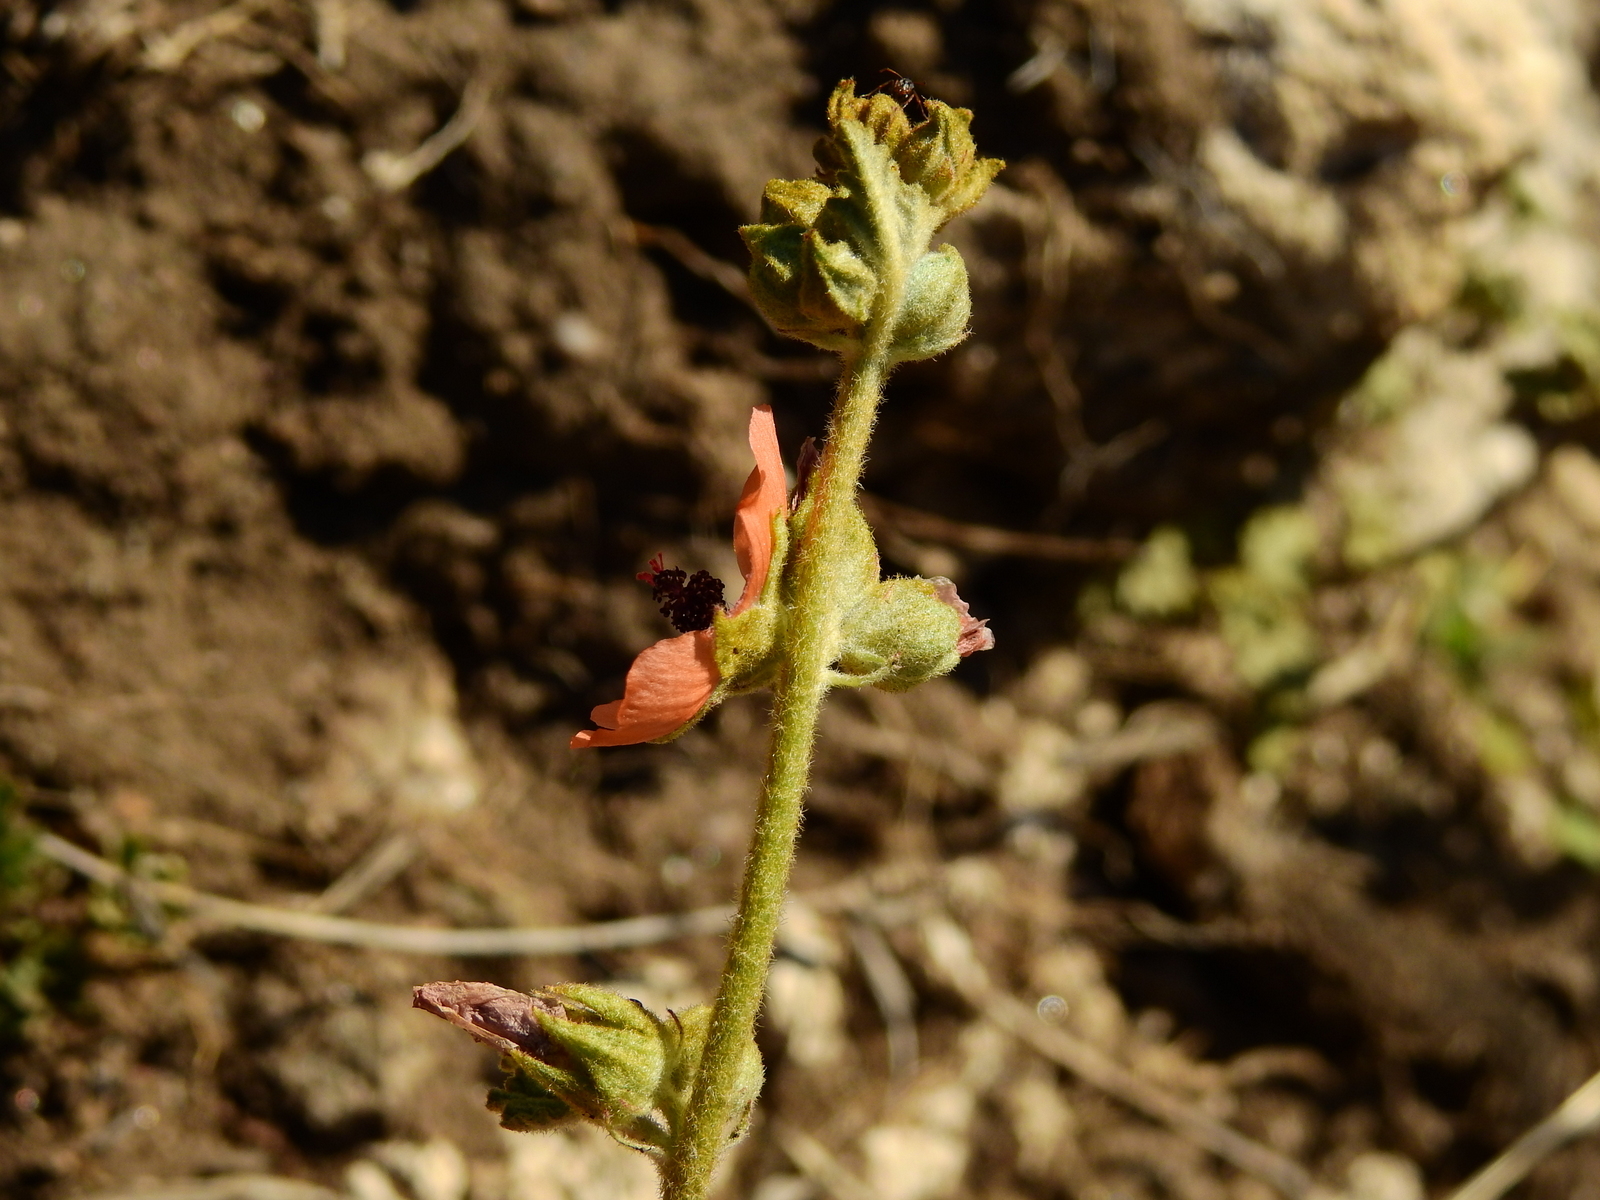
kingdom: Plantae
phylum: Tracheophyta
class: Magnoliopsida
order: Malvales
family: Malvaceae
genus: Sphaeralcea
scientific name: Sphaeralcea bonariensis
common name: Latin globemallow
